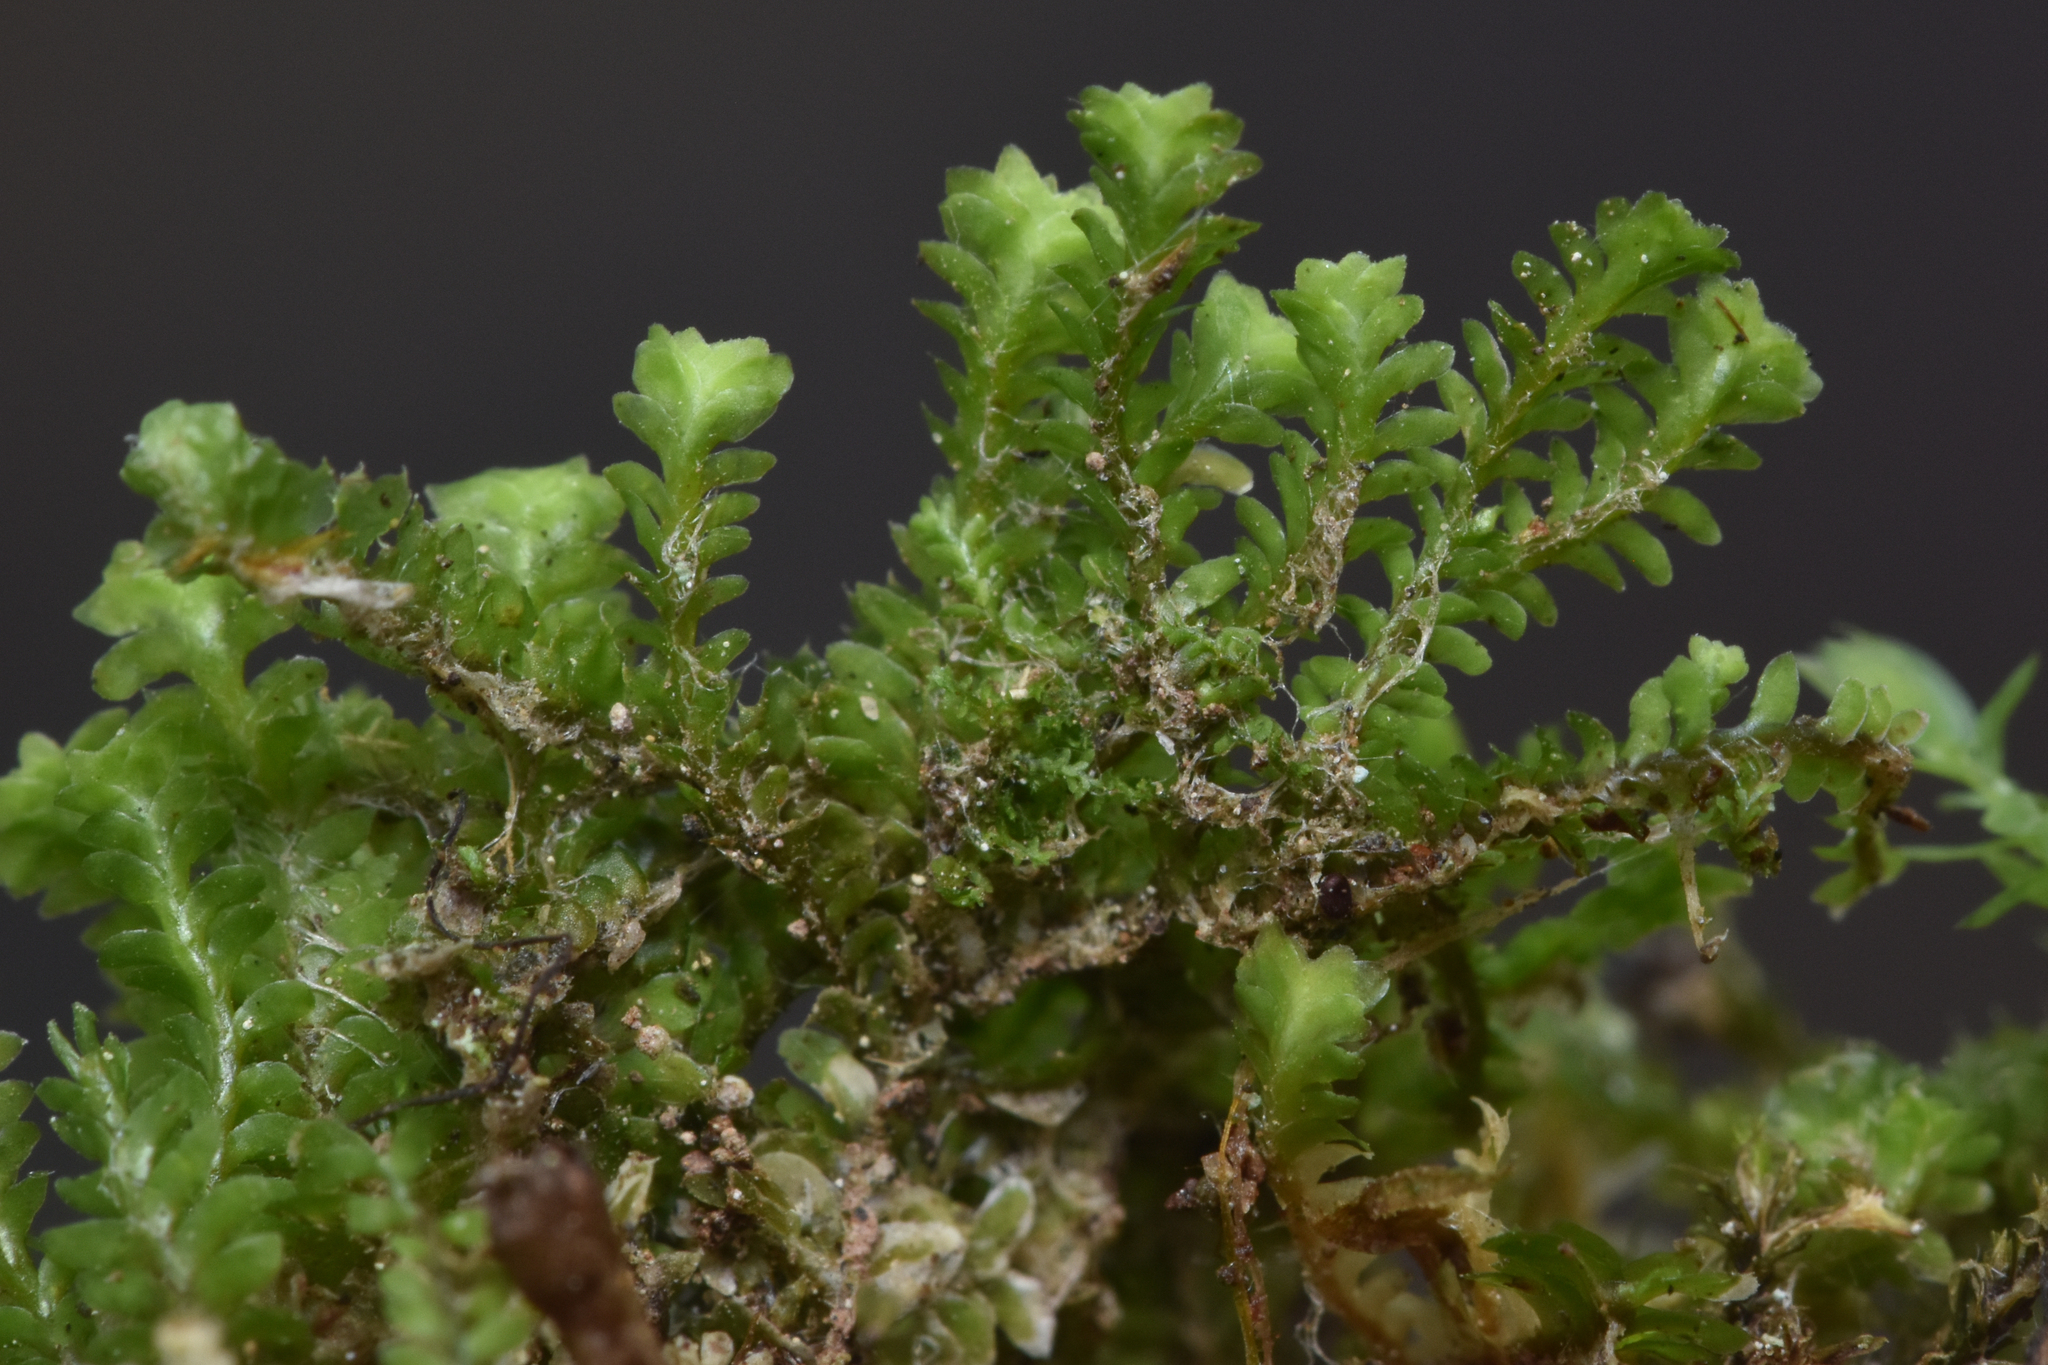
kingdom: Plantae
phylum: Marchantiophyta
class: Jungermanniopsida
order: Jungermanniales
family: Scapaniaceae
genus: Diplophyllum
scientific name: Diplophyllum taxifolium
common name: Alpine earwort
